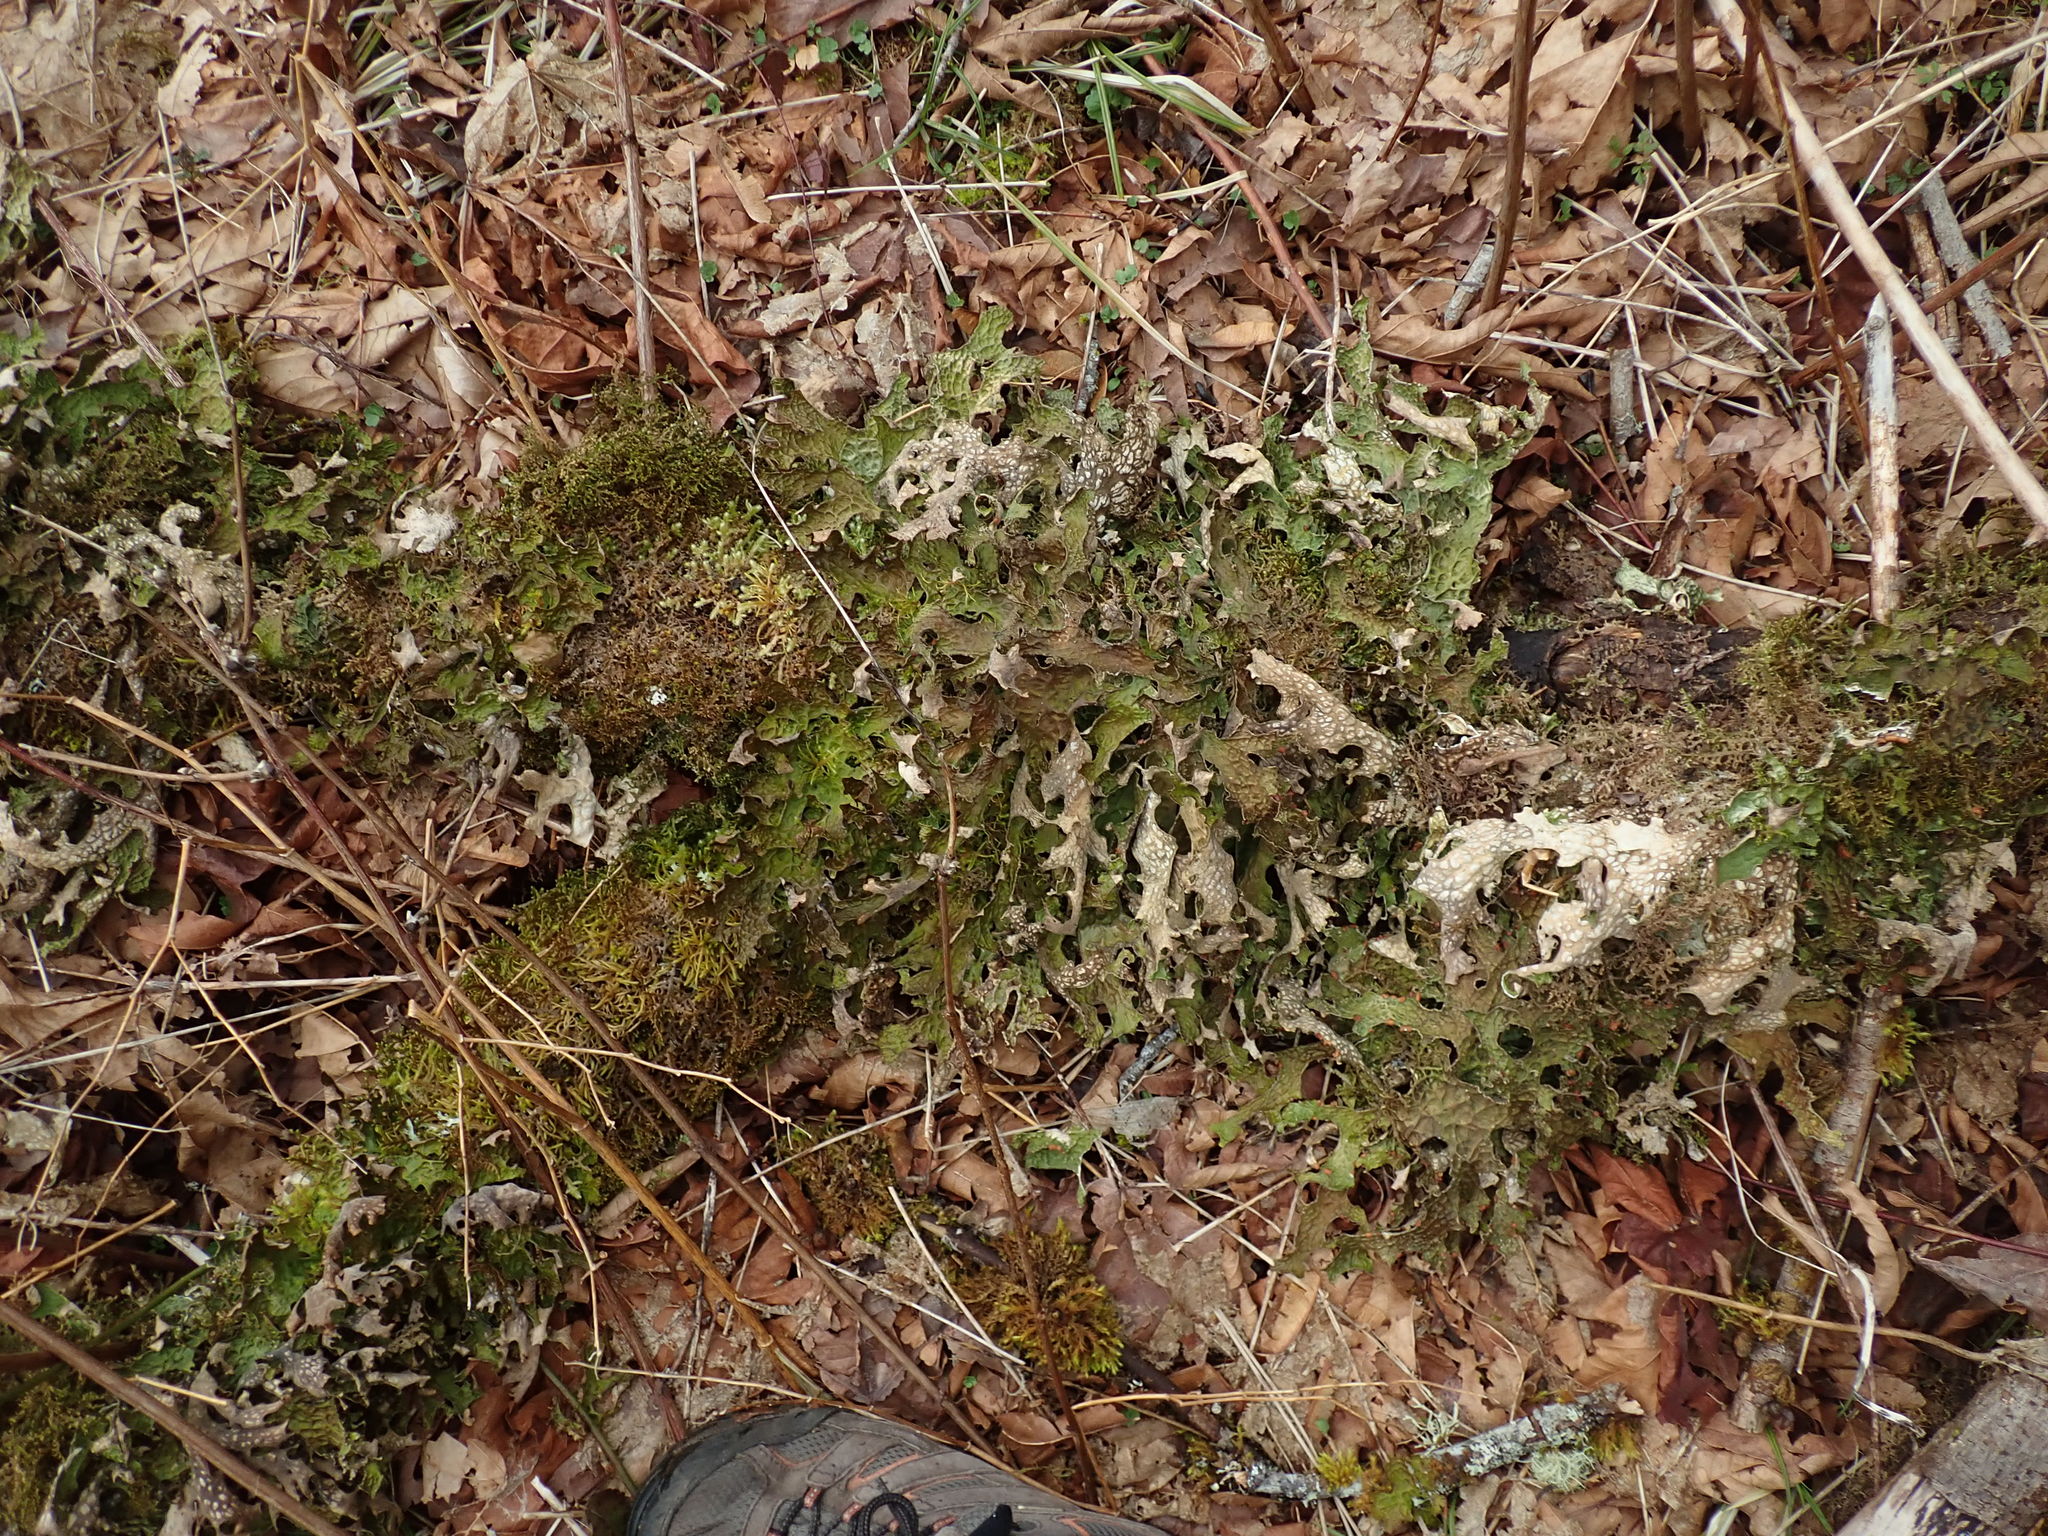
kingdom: Fungi
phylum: Ascomycota
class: Lecanoromycetes
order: Peltigerales
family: Lobariaceae
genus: Lobaria
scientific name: Lobaria pulmonaria
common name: Lungwort
